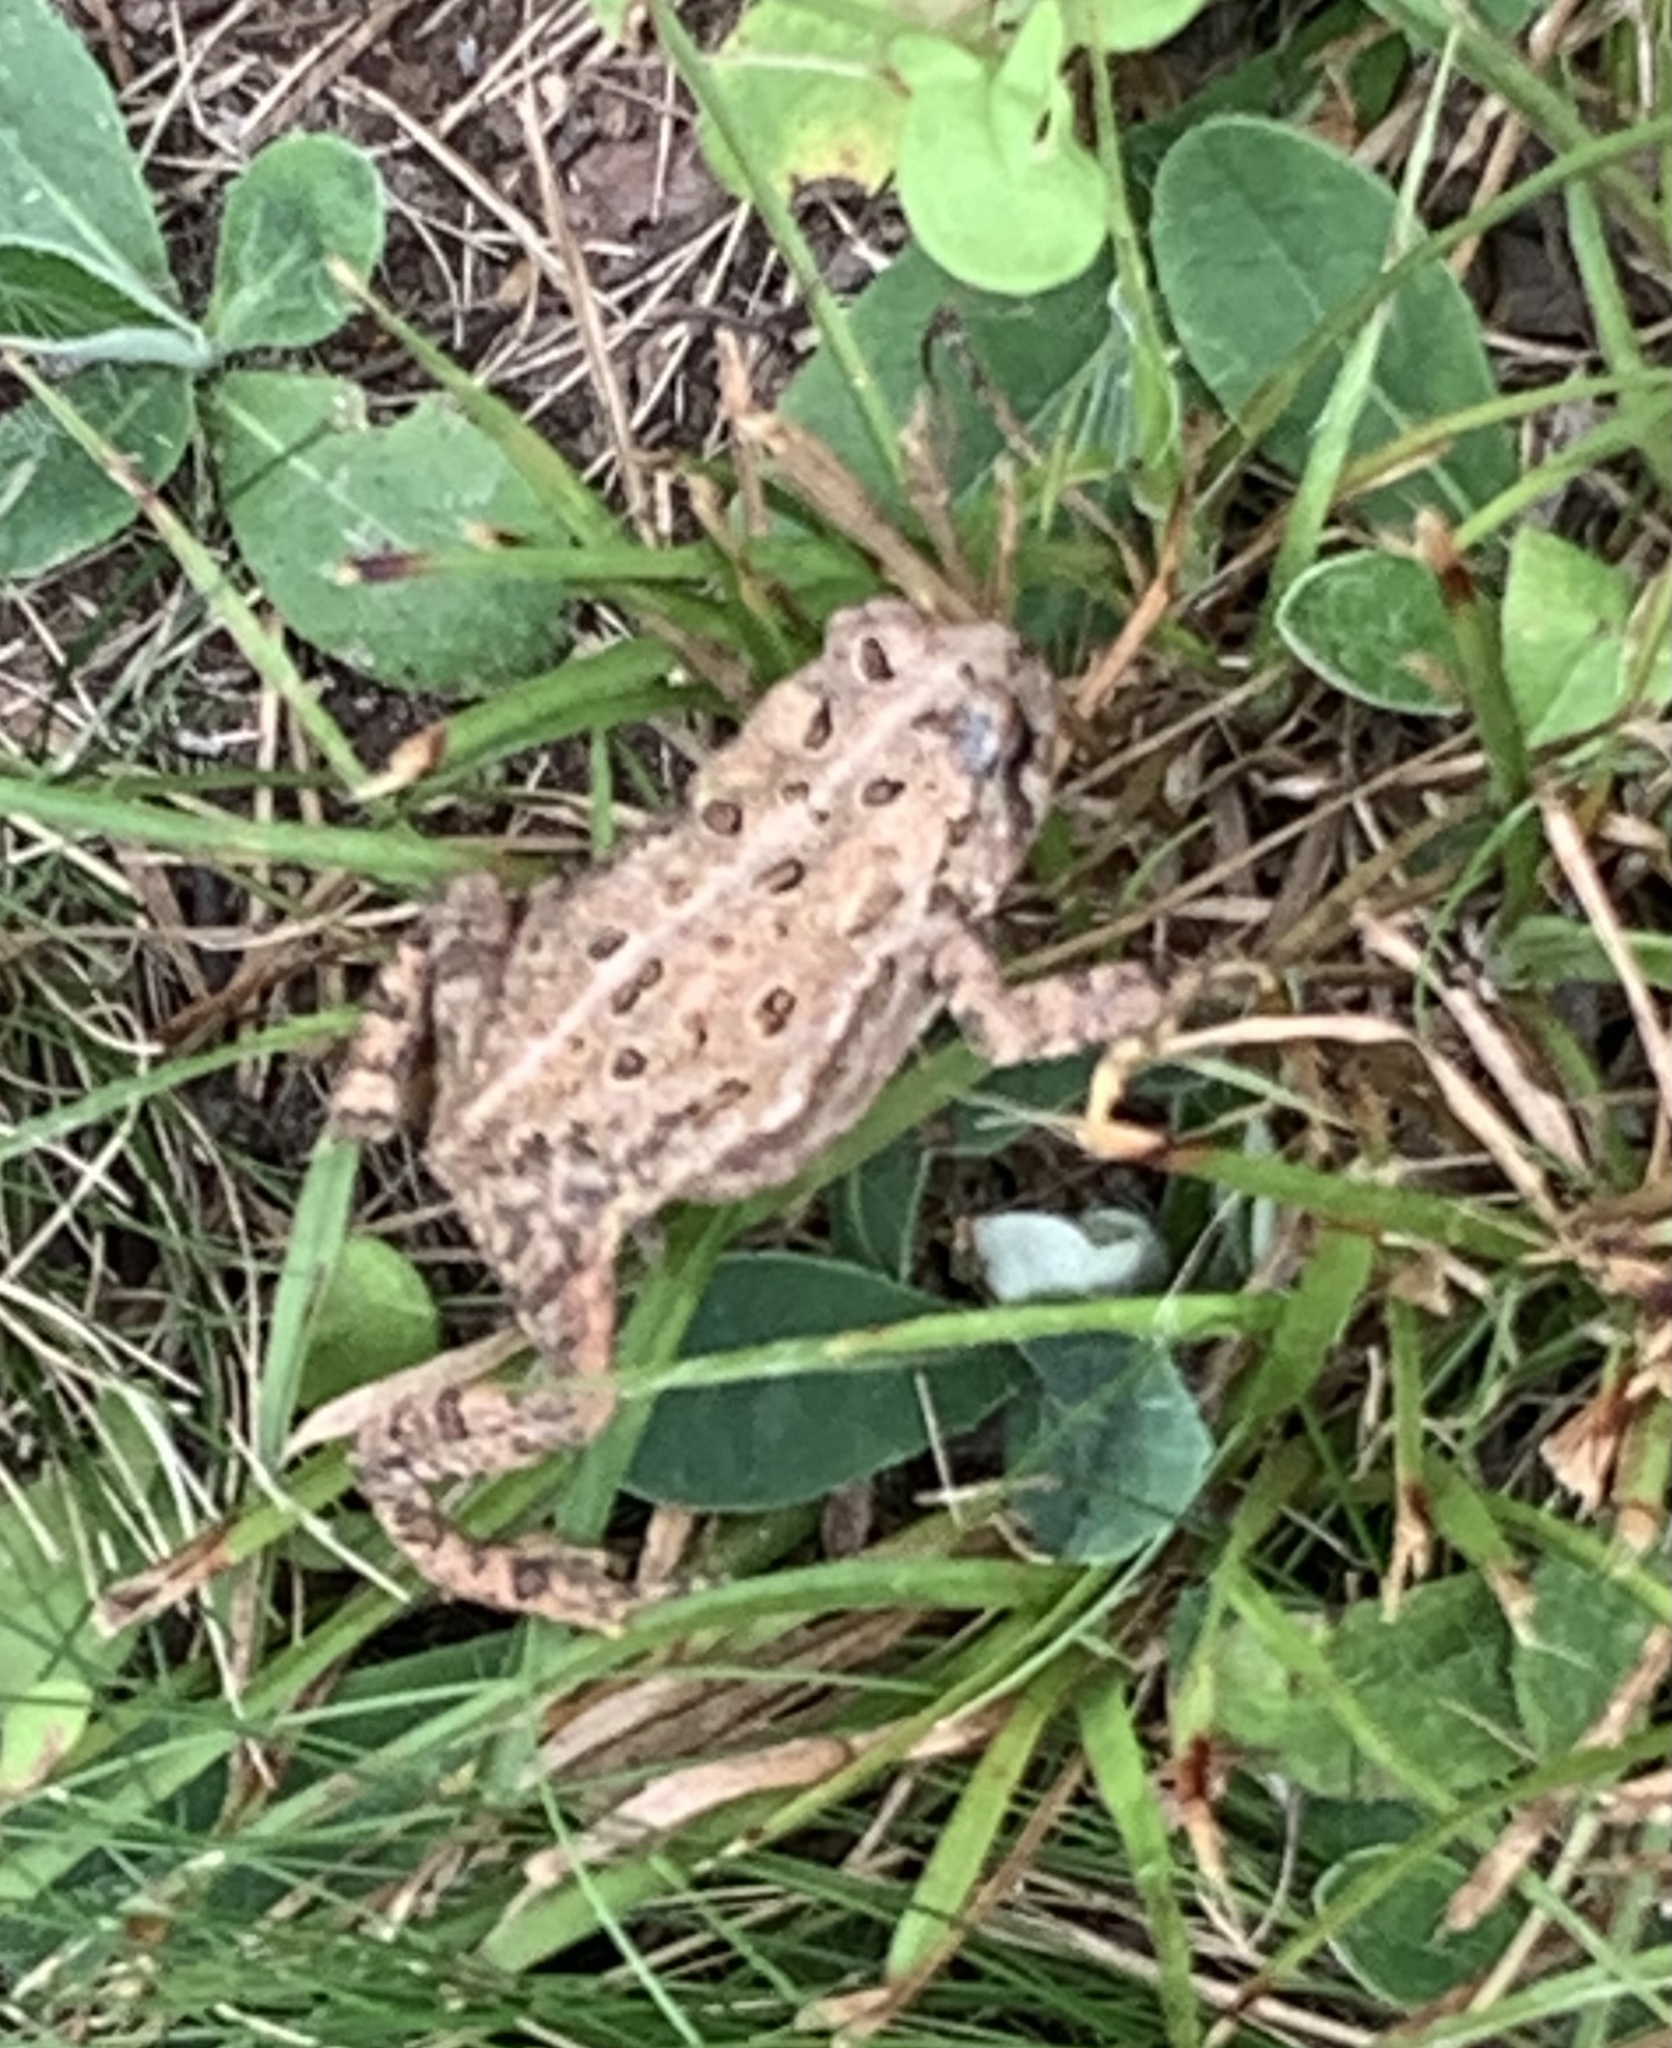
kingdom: Animalia
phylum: Chordata
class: Amphibia
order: Anura
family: Bufonidae
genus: Anaxyrus
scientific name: Anaxyrus americanus
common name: American toad
